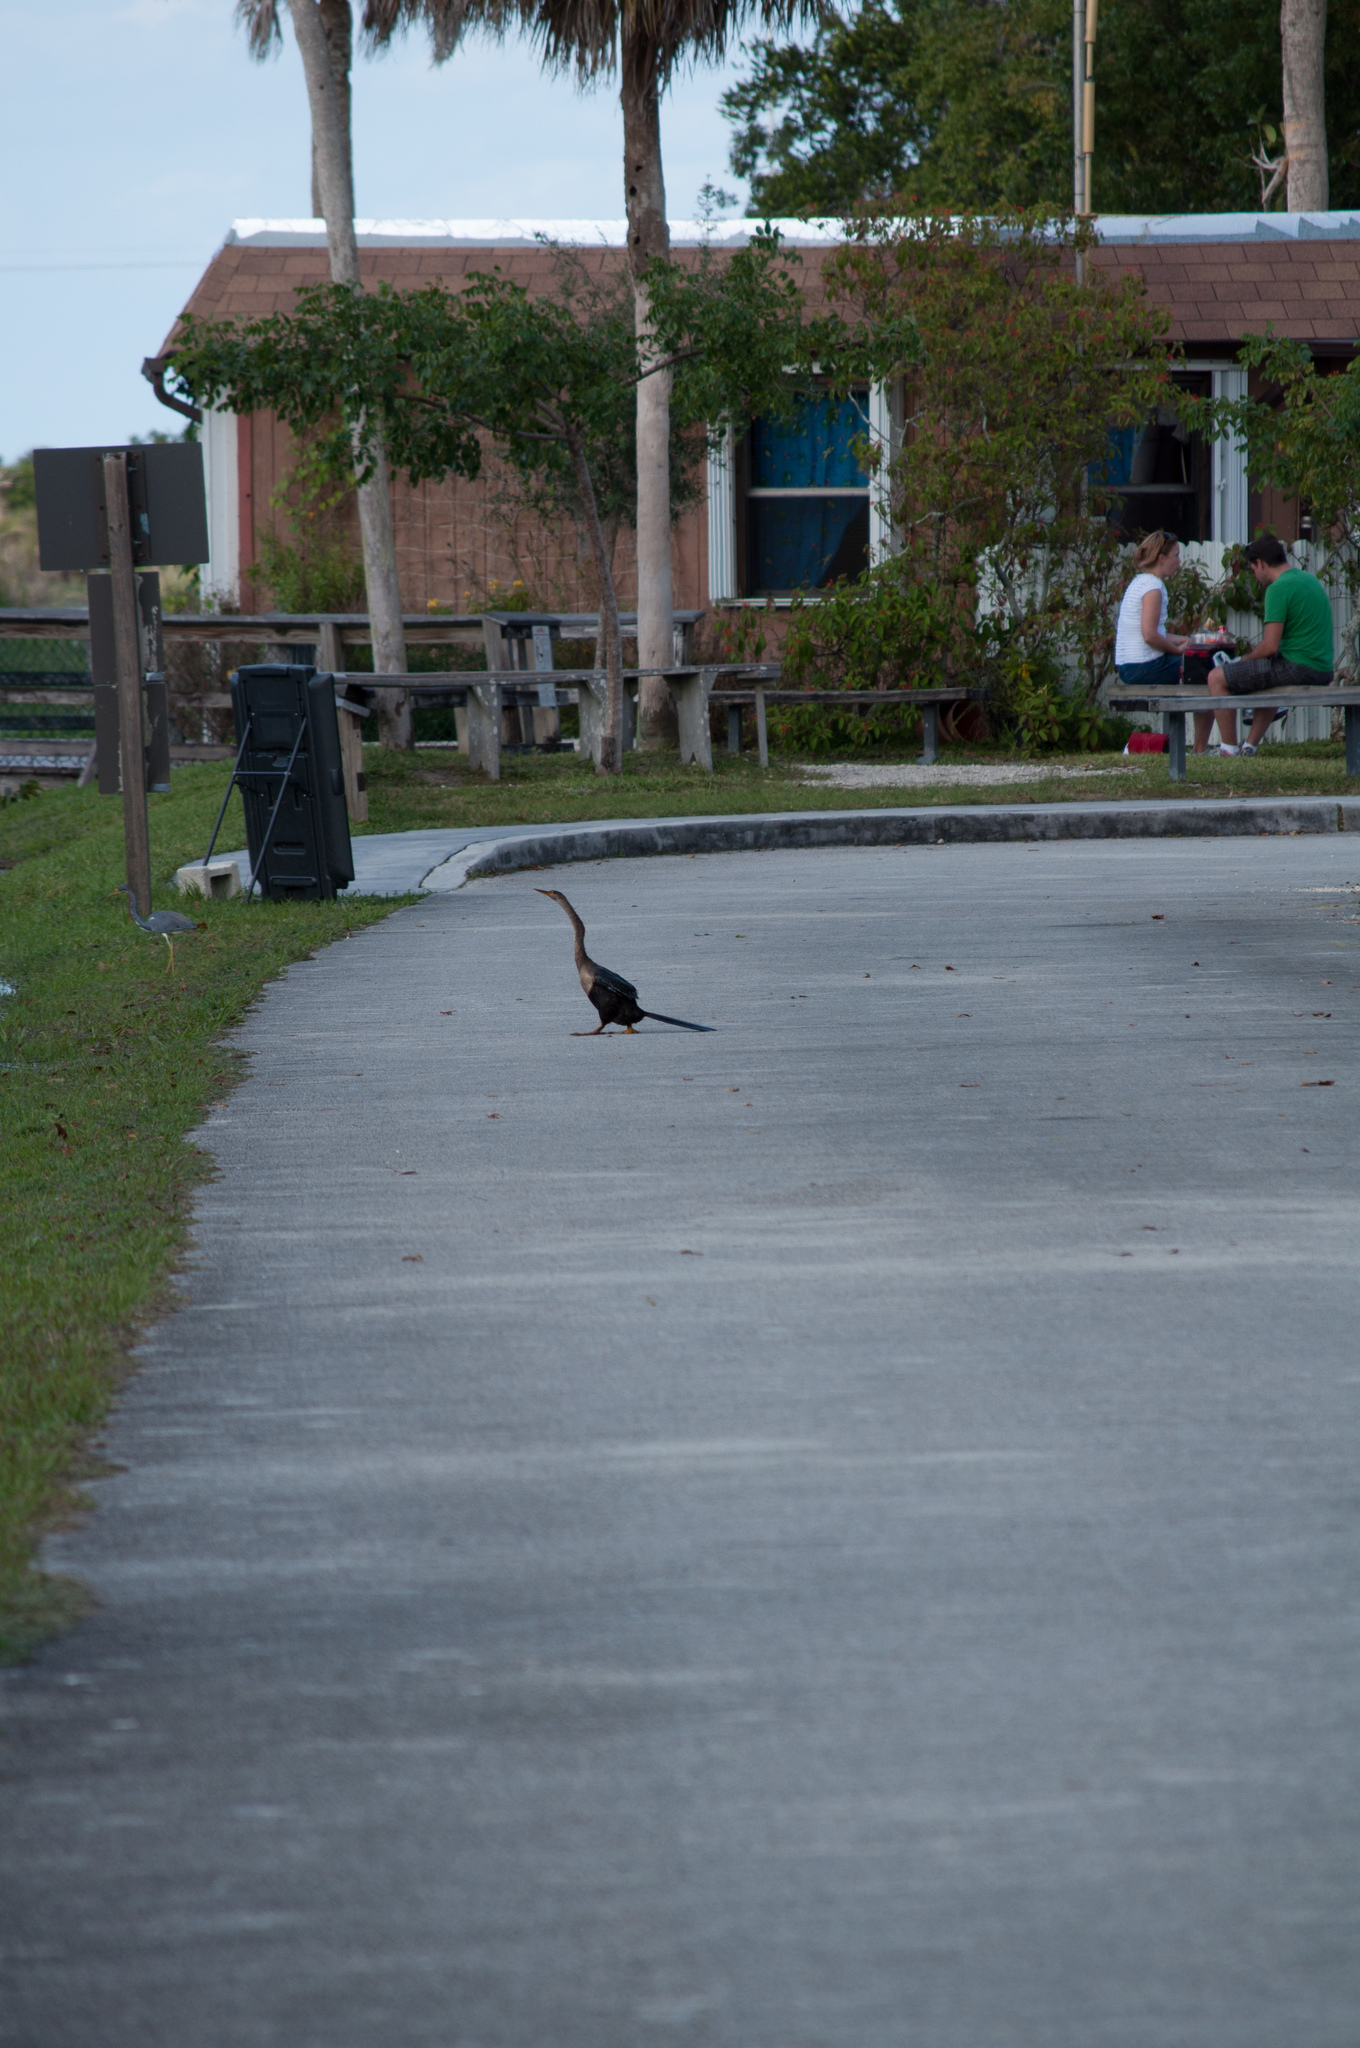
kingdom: Animalia
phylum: Chordata
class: Aves
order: Suliformes
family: Anhingidae
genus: Anhinga
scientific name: Anhinga anhinga
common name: Anhinga
